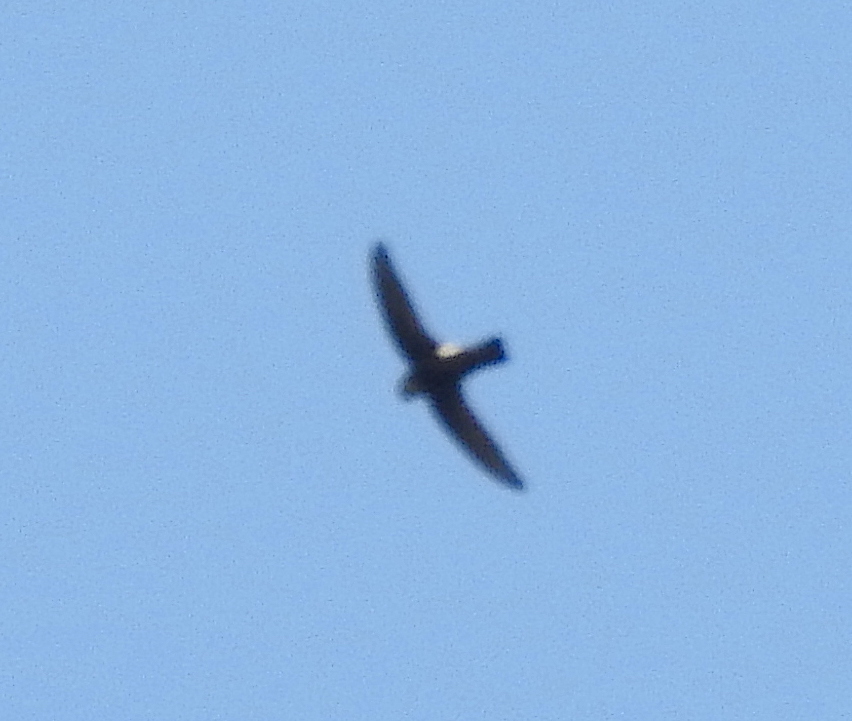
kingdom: Animalia
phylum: Chordata
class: Aves
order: Apodiformes
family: Apodidae
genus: Apus
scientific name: Apus affinis
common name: Little swift
